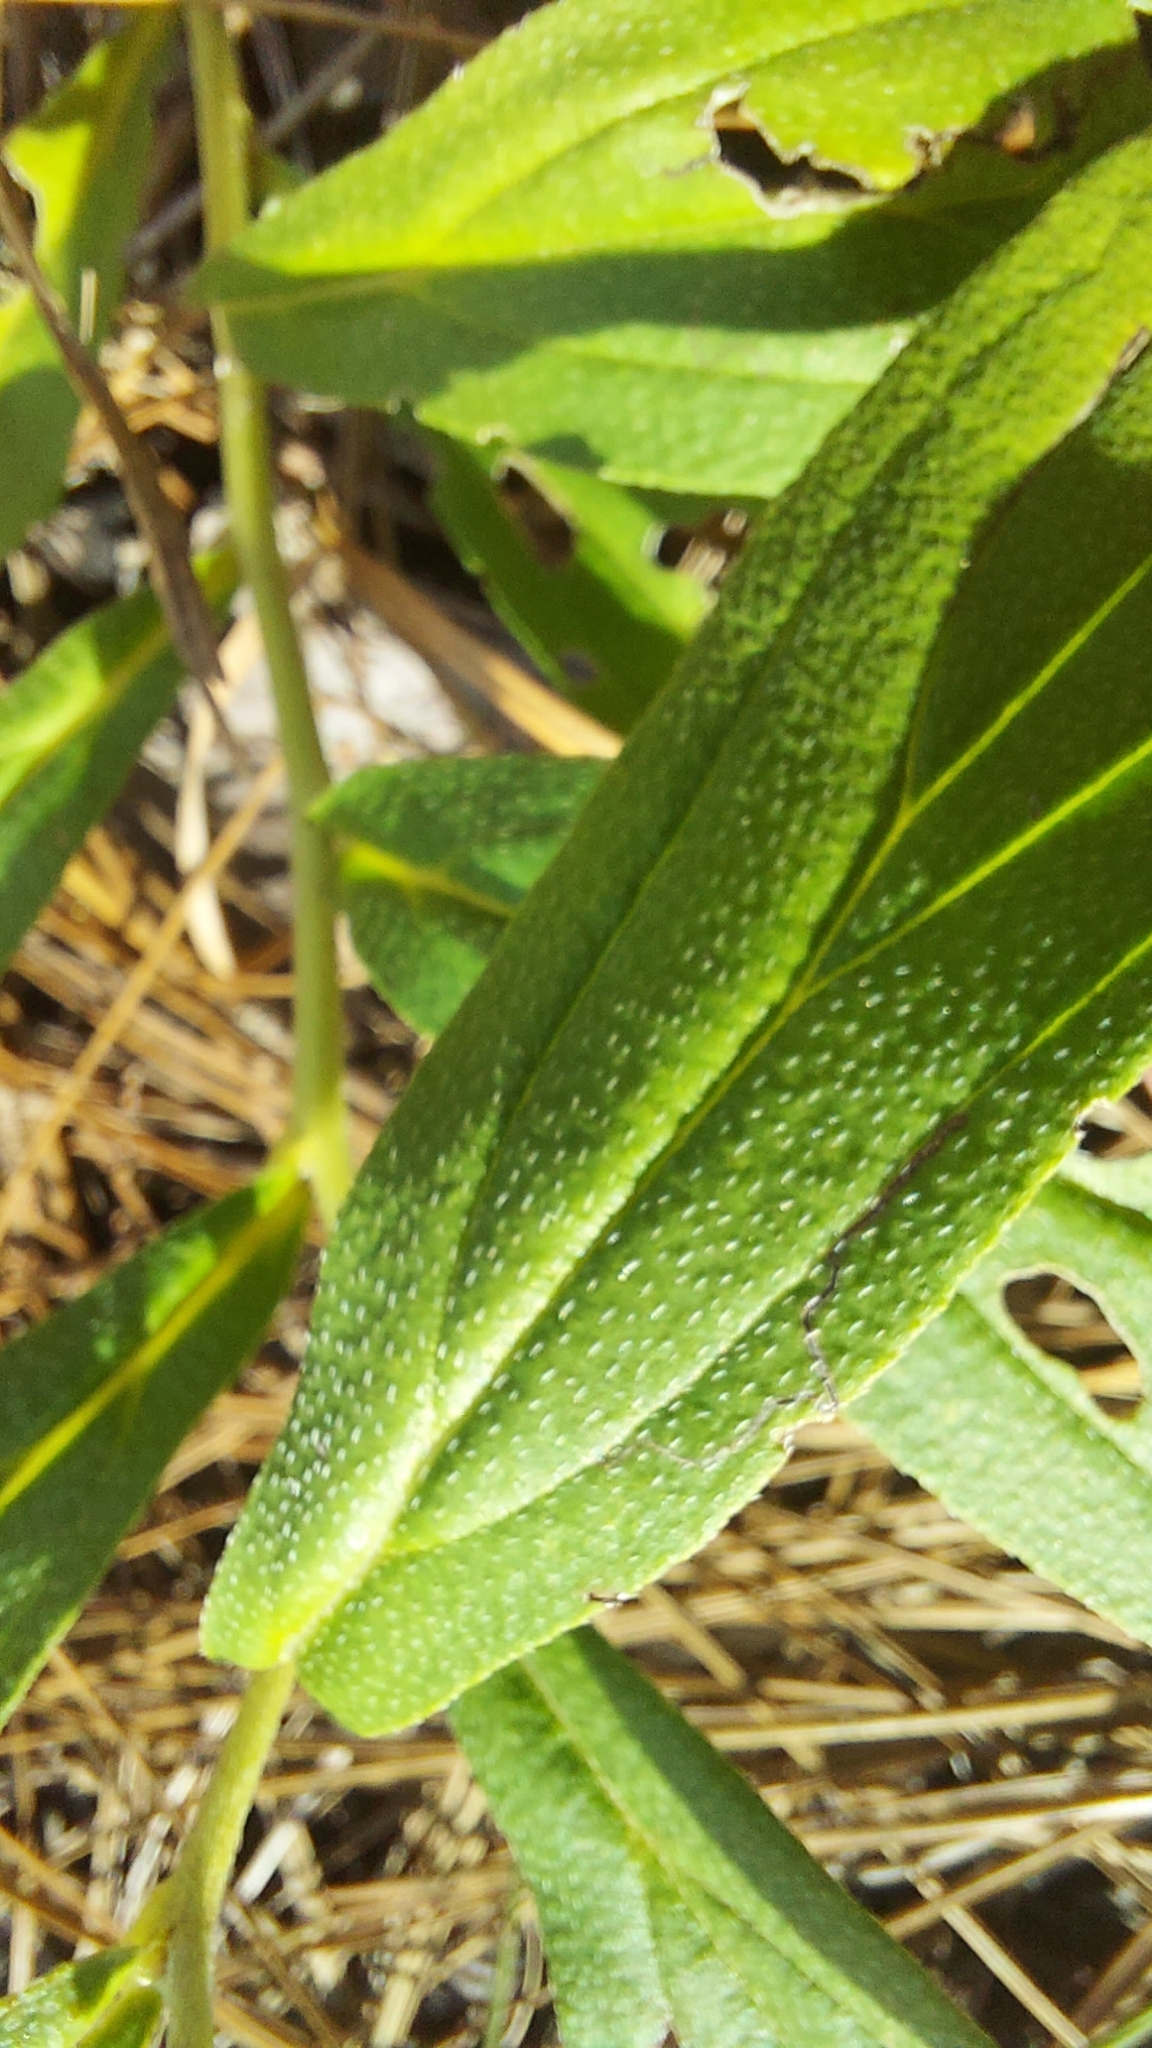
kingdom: Plantae
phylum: Tracheophyta
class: Magnoliopsida
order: Boraginales
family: Boraginaceae
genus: Lithospermum
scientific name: Lithospermum virginianum
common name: Eastern false gromwell
